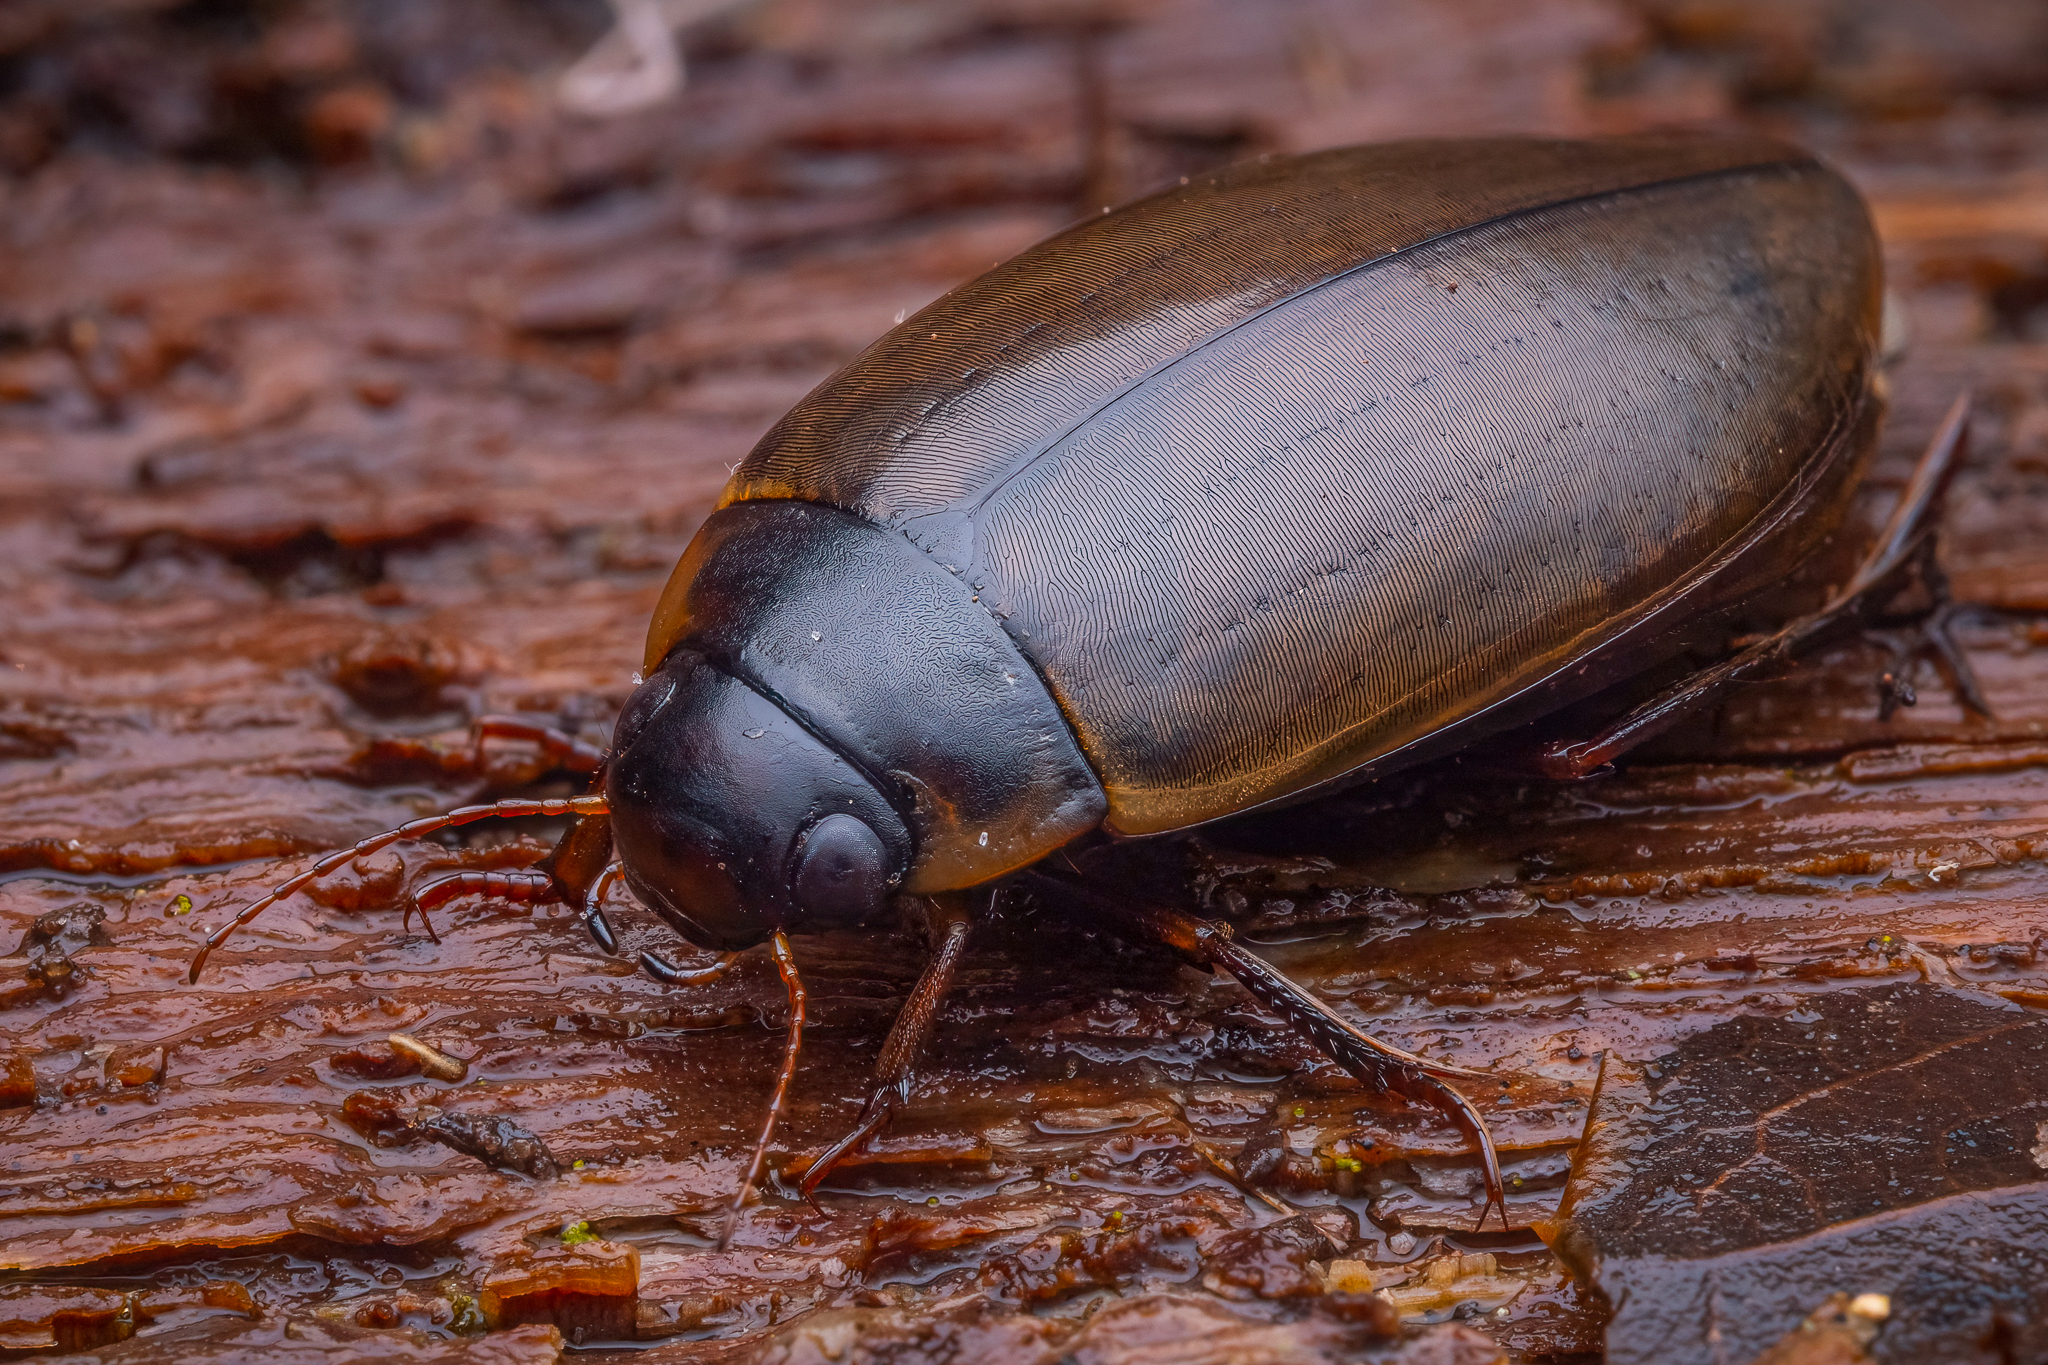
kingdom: Animalia
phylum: Arthropoda
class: Insecta
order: Coleoptera
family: Dytiscidae
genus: Colymbetes
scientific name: Colymbetes fuscus
